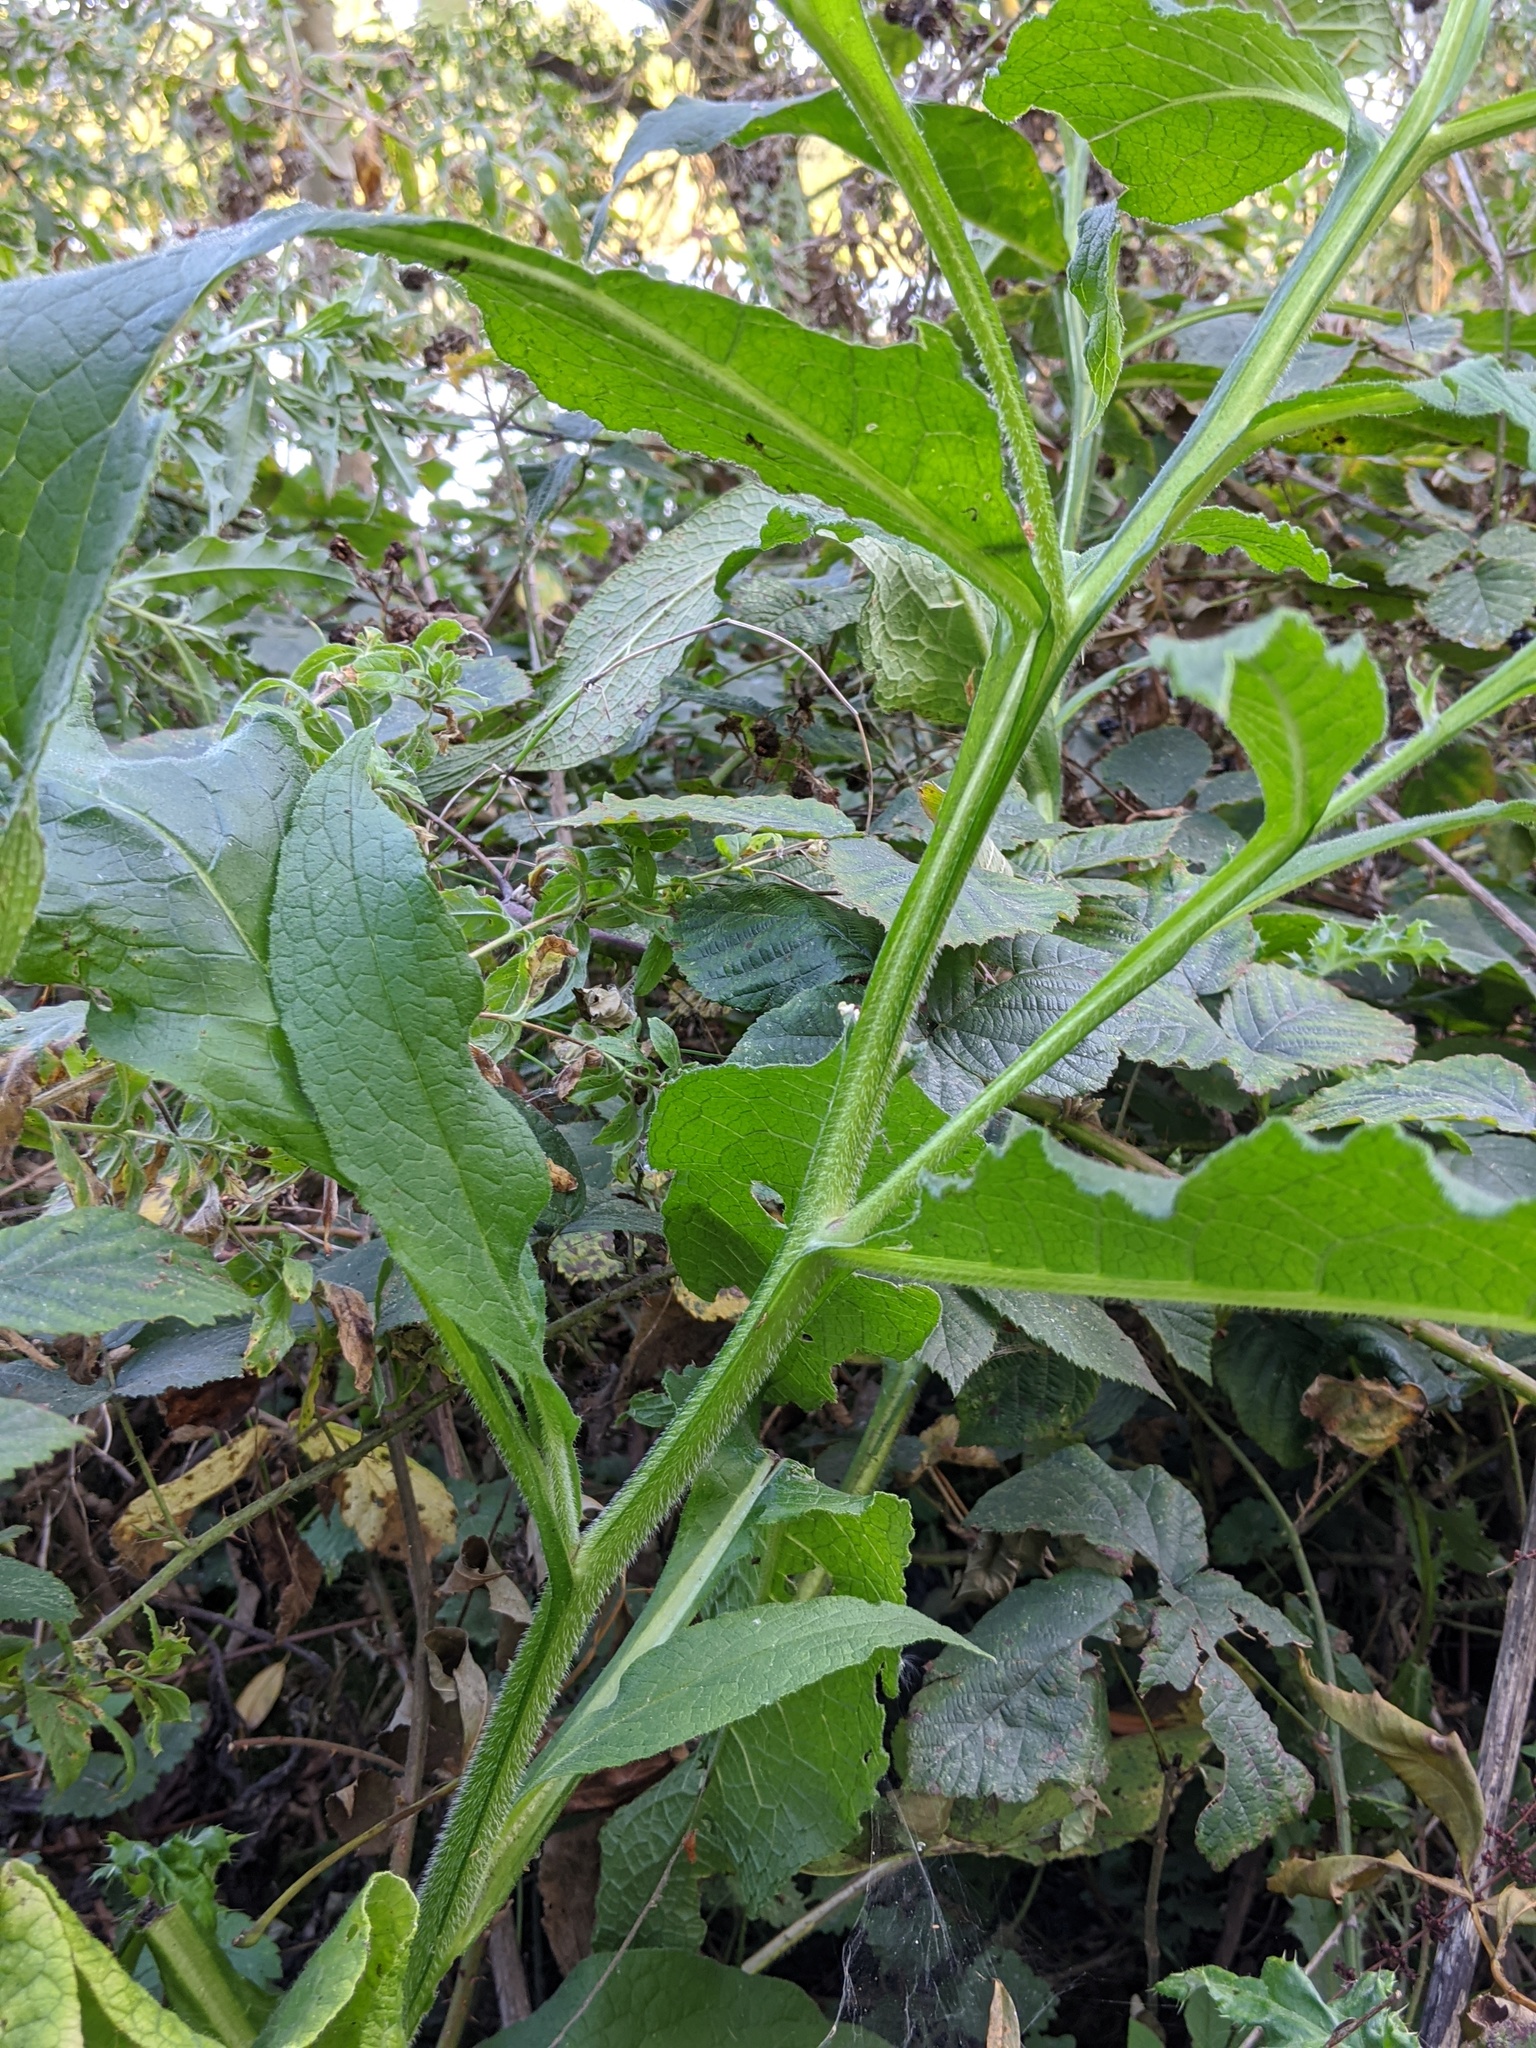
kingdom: Plantae
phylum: Tracheophyta
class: Magnoliopsida
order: Boraginales
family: Boraginaceae
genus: Symphytum
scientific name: Symphytum officinale
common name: Common comfrey
